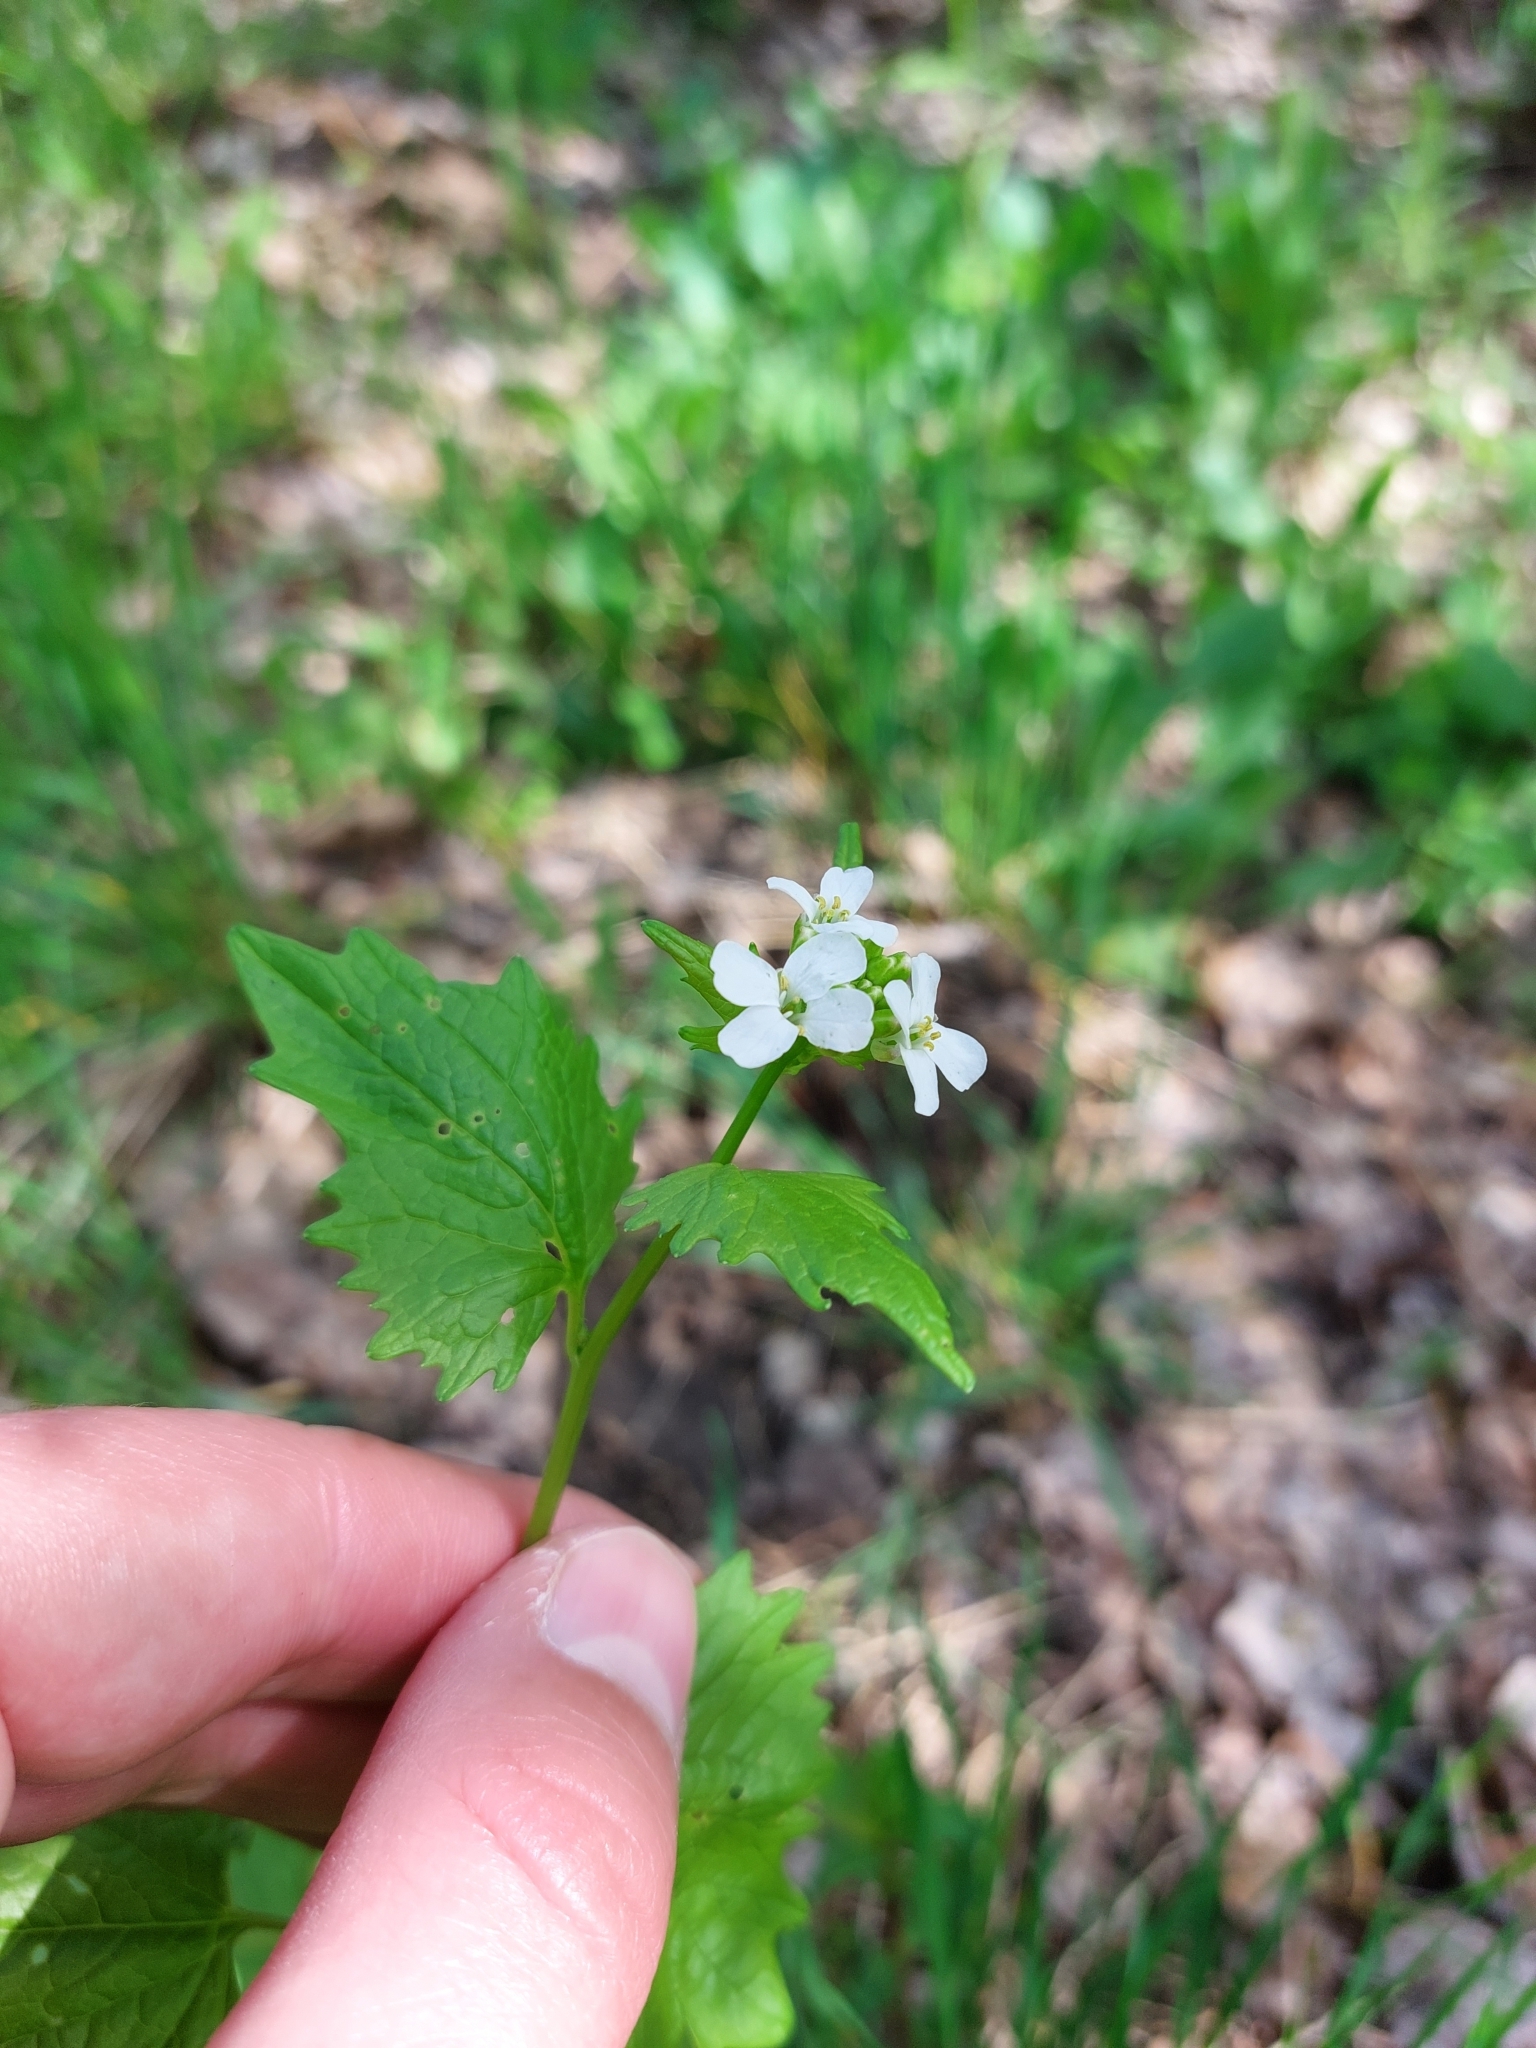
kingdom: Plantae
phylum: Tracheophyta
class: Magnoliopsida
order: Brassicales
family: Brassicaceae
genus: Alliaria
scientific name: Alliaria petiolata
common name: Garlic mustard
